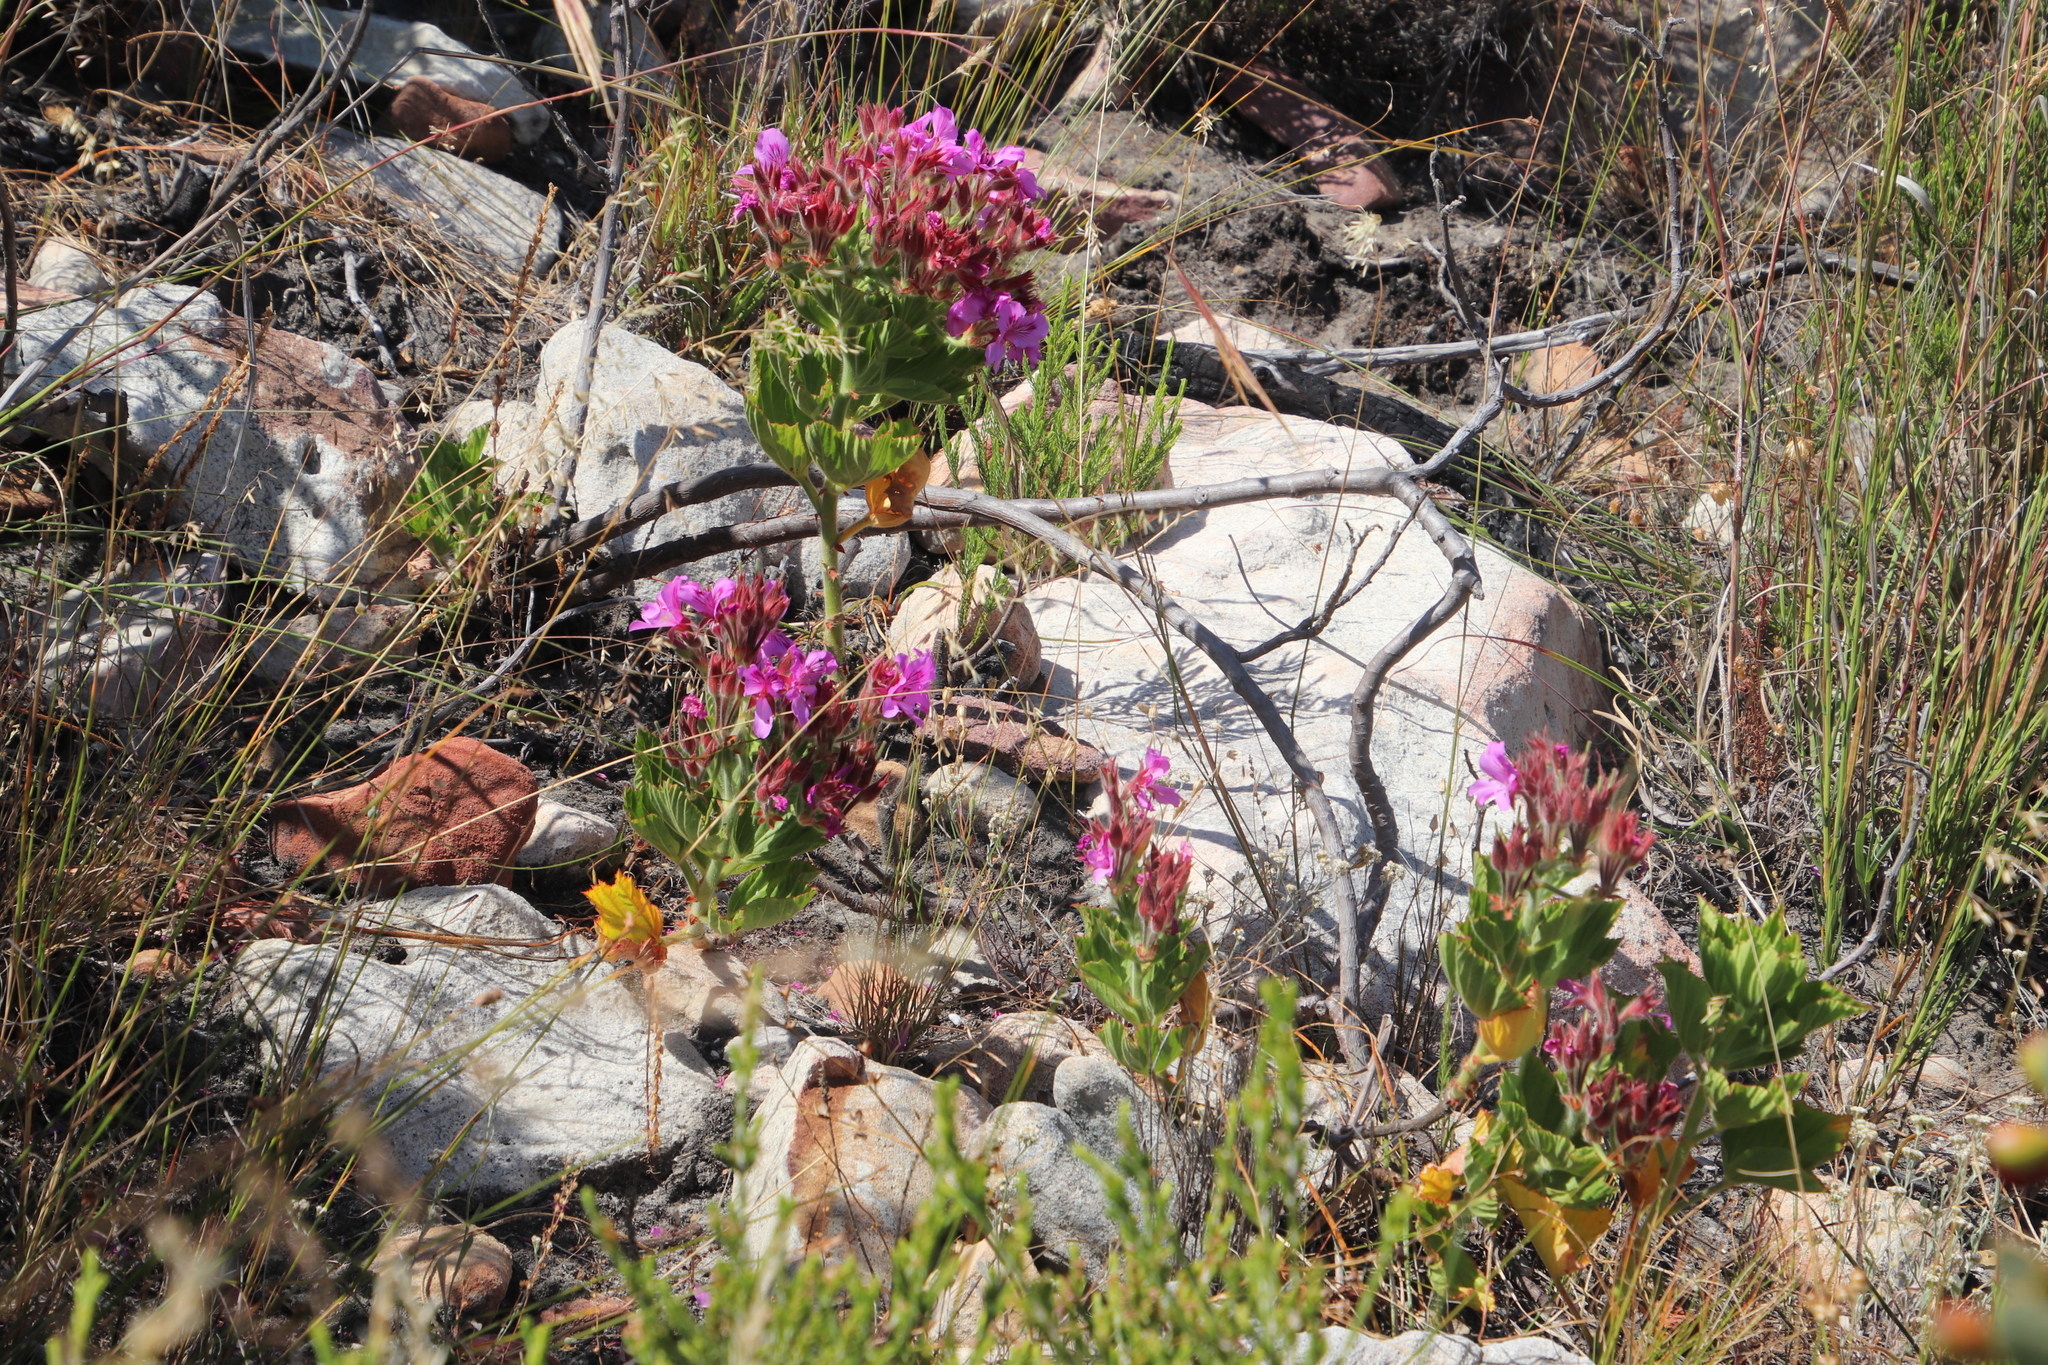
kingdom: Plantae
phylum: Tracheophyta
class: Magnoliopsida
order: Geraniales
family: Geraniaceae
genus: Pelargonium
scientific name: Pelargonium cucullatum
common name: Tree pelargonium
